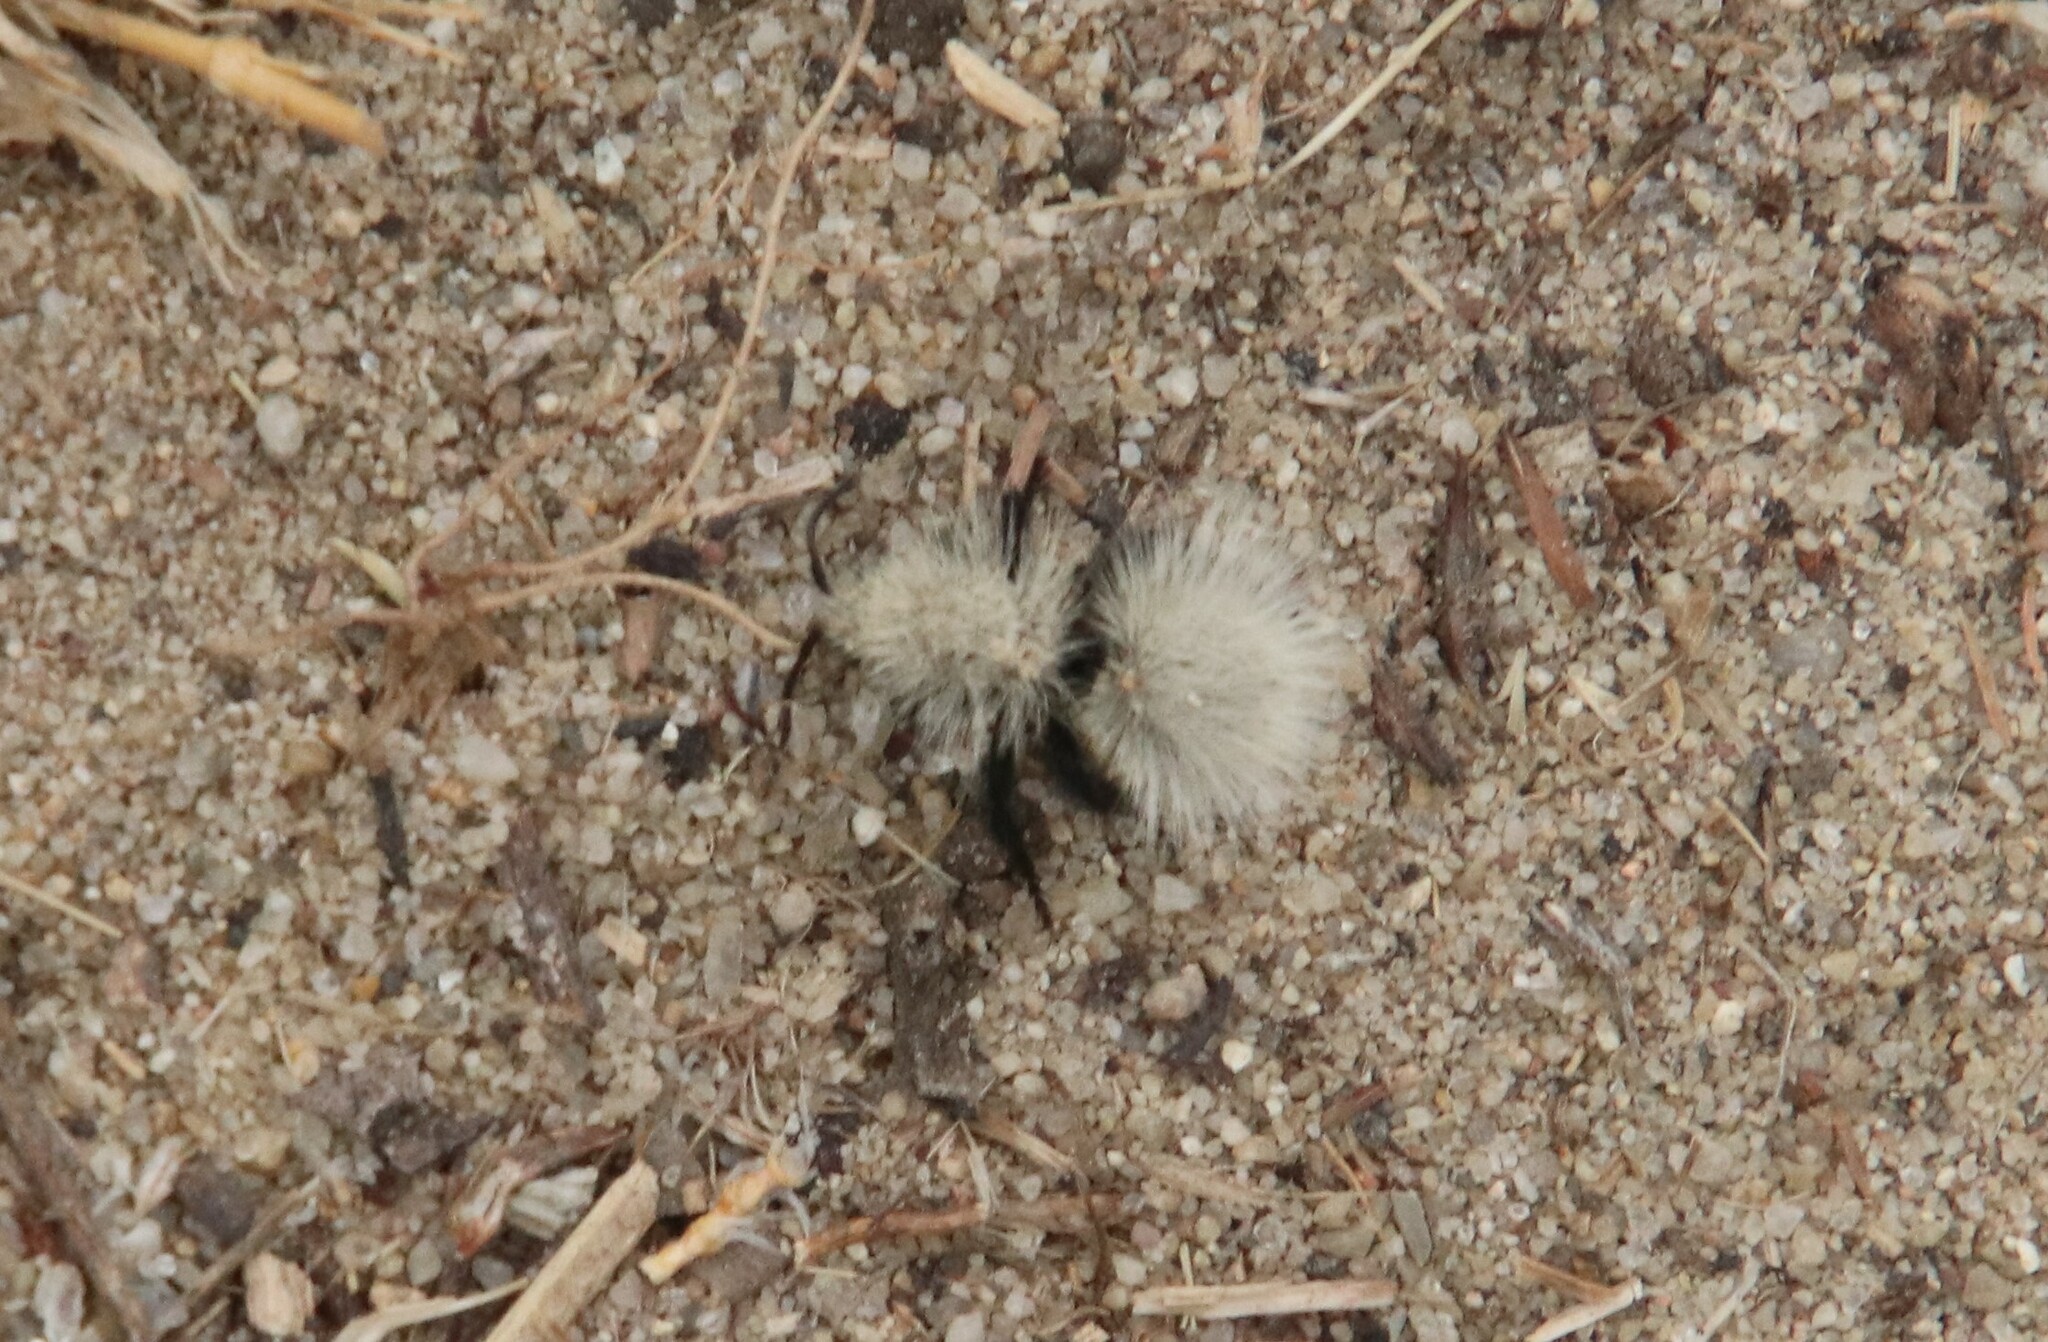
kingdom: Animalia
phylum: Arthropoda
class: Insecta
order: Hymenoptera
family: Mutillidae
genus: Dasymutilla
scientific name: Dasymutilla
